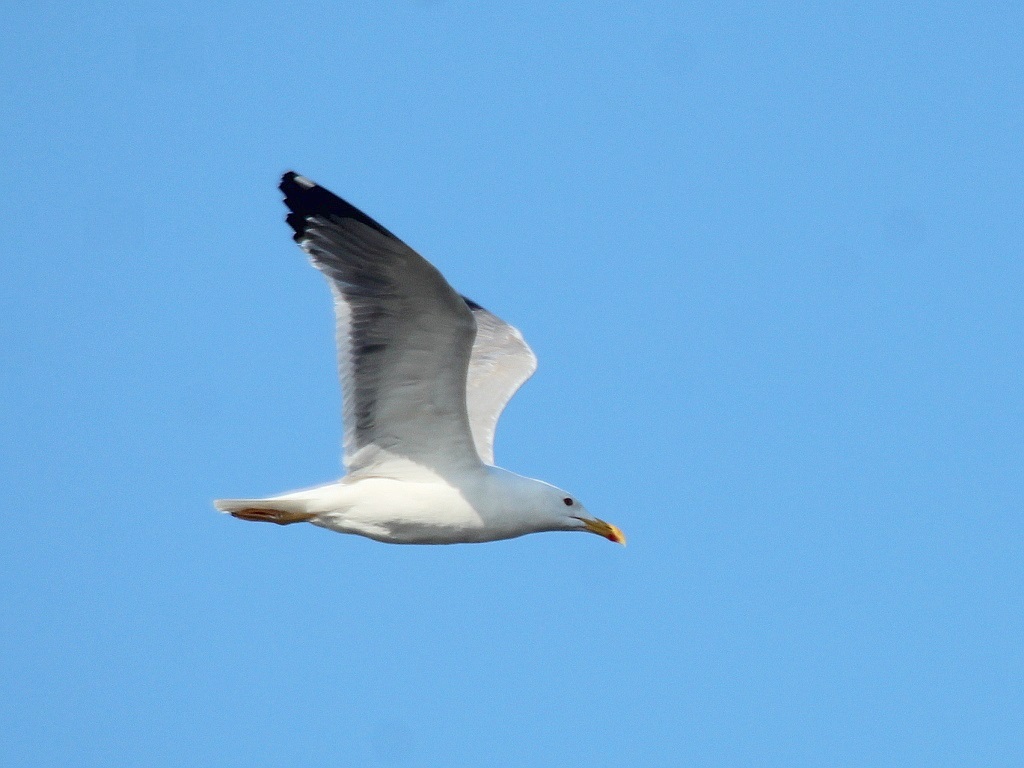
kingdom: Animalia
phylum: Chordata
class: Aves
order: Charadriiformes
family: Laridae
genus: Larus
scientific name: Larus fuscus
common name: Lesser black-backed gull
